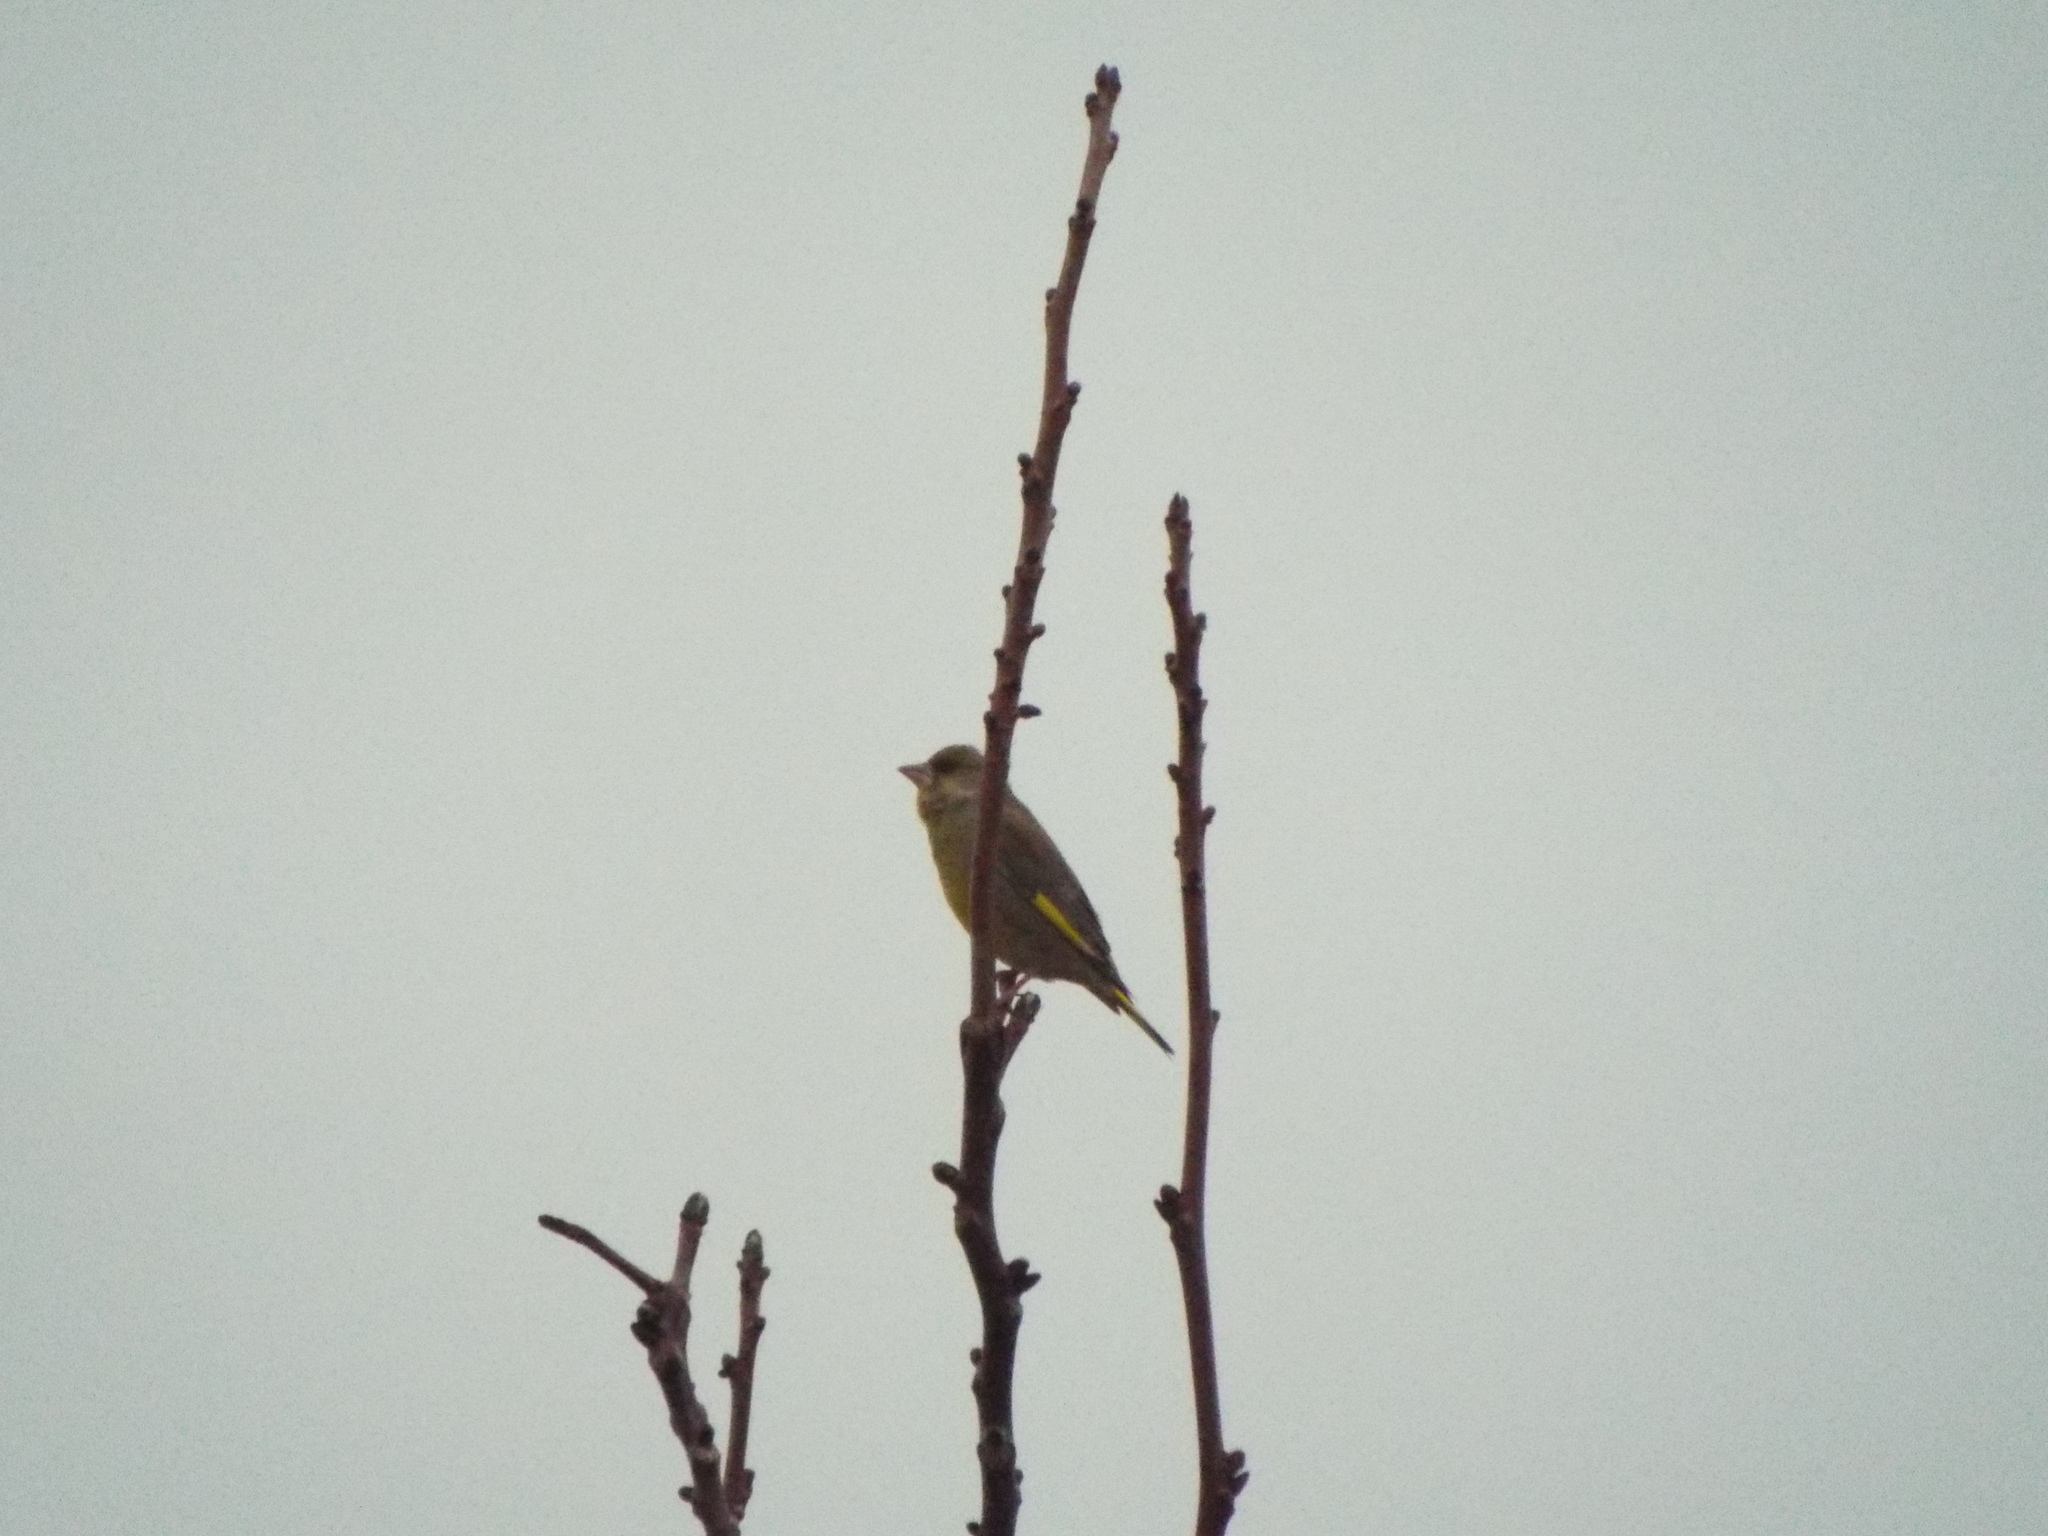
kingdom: Plantae
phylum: Tracheophyta
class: Liliopsida
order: Poales
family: Poaceae
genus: Chloris
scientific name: Chloris chloris
